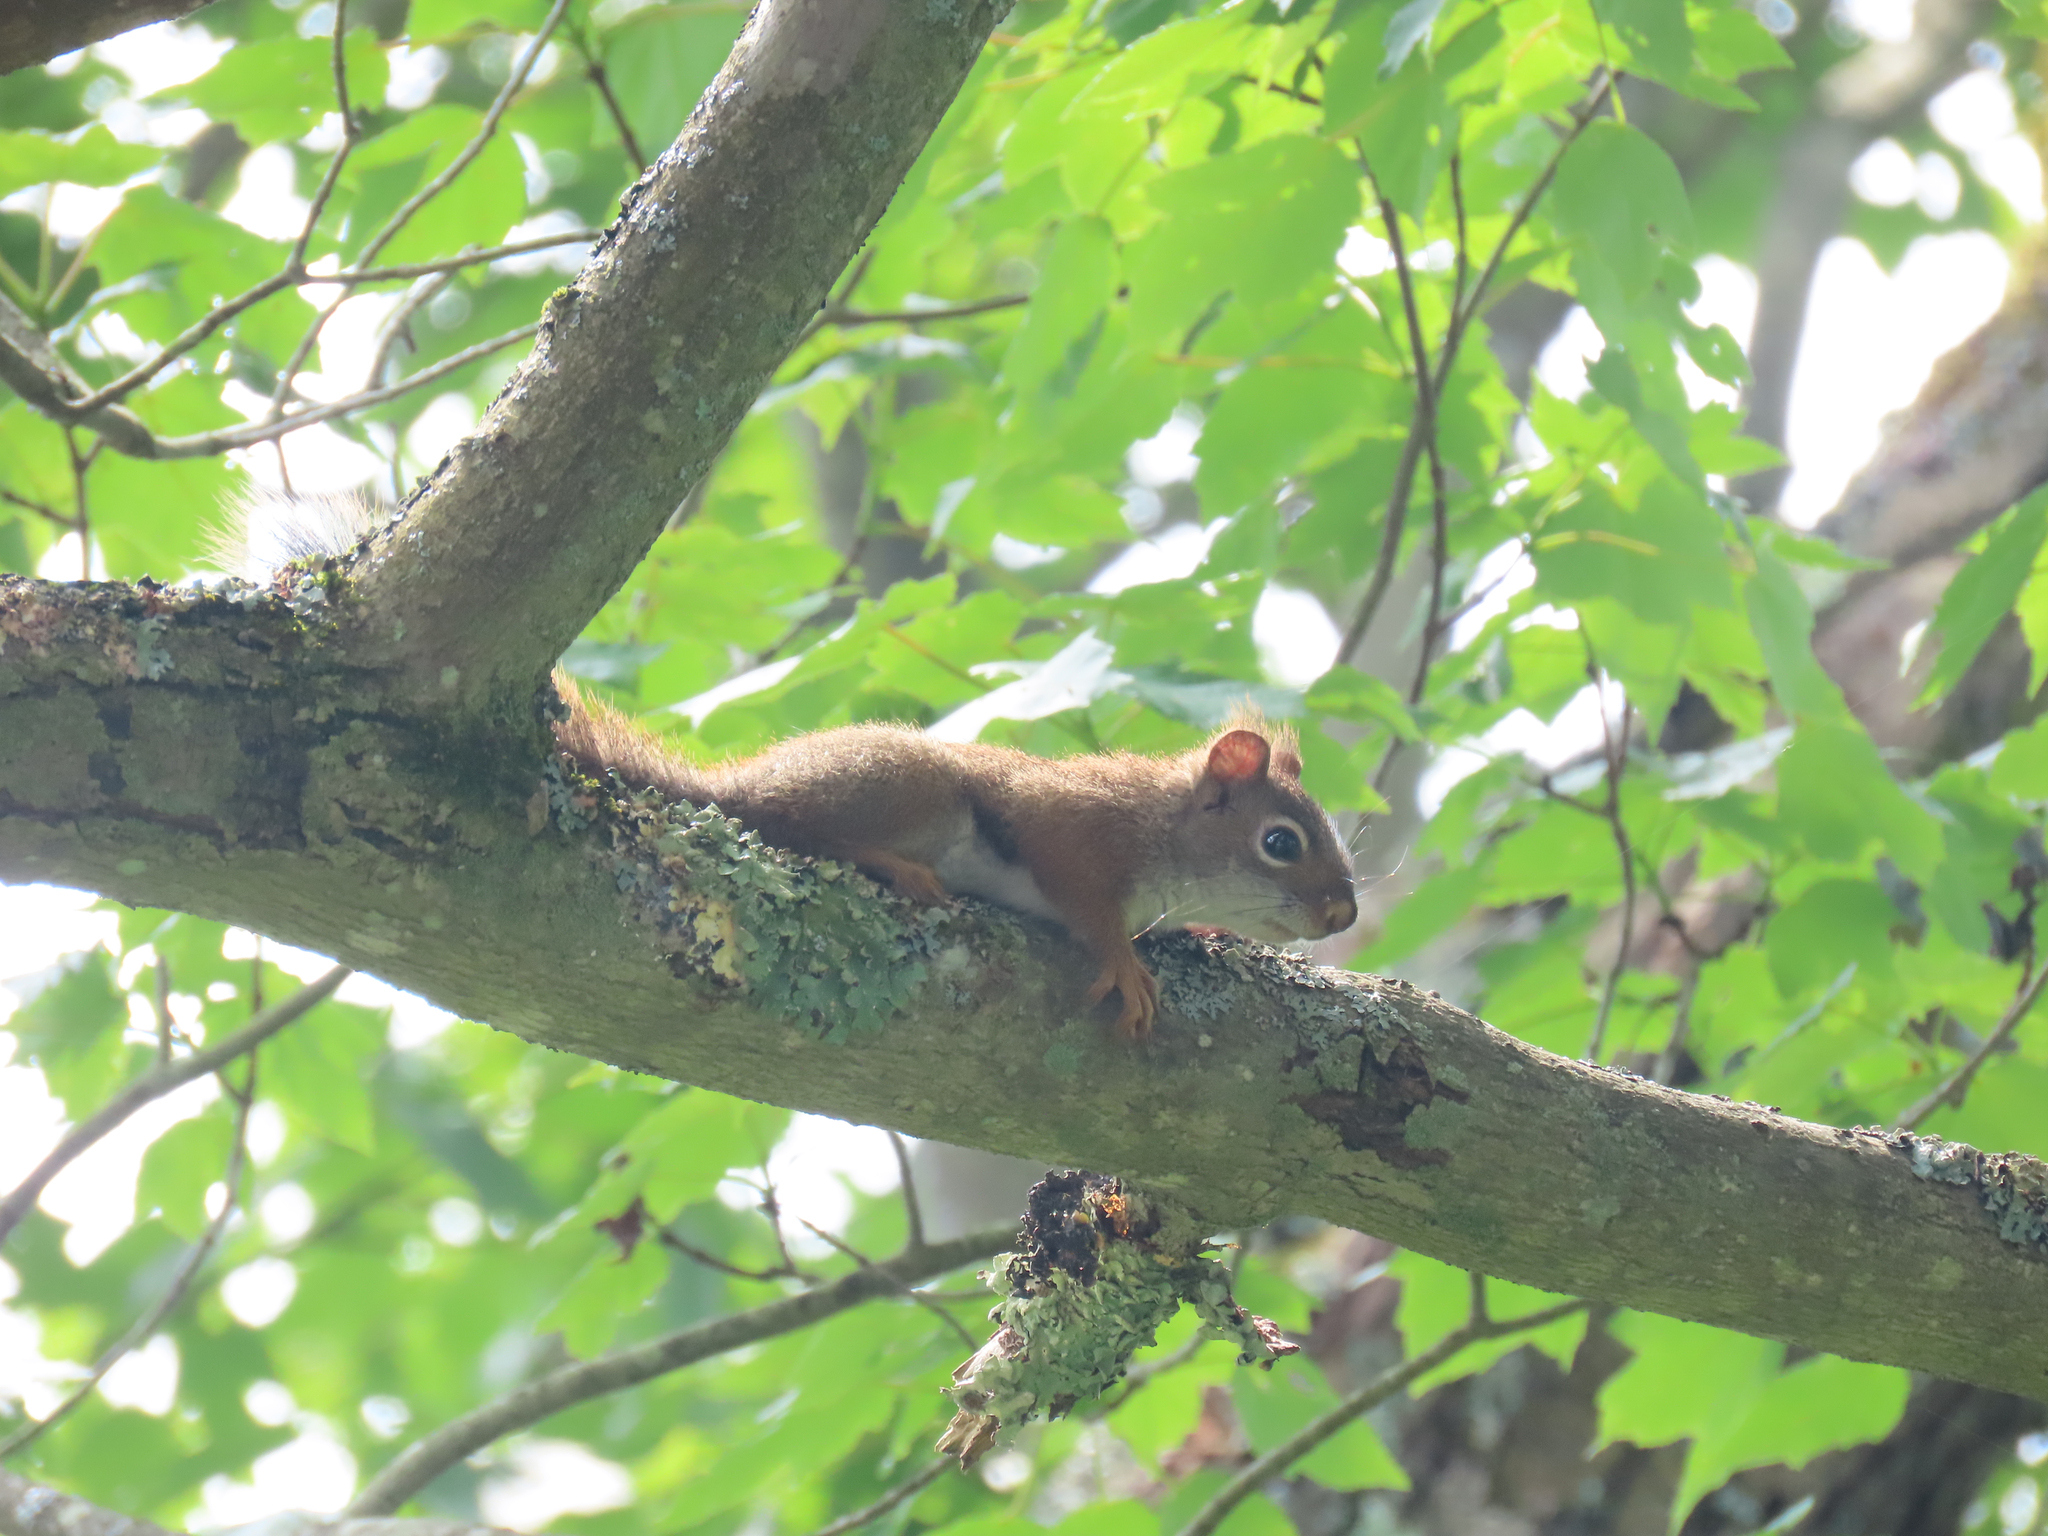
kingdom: Animalia
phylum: Chordata
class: Mammalia
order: Rodentia
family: Sciuridae
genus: Tamiasciurus
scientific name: Tamiasciurus hudsonicus
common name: Red squirrel
